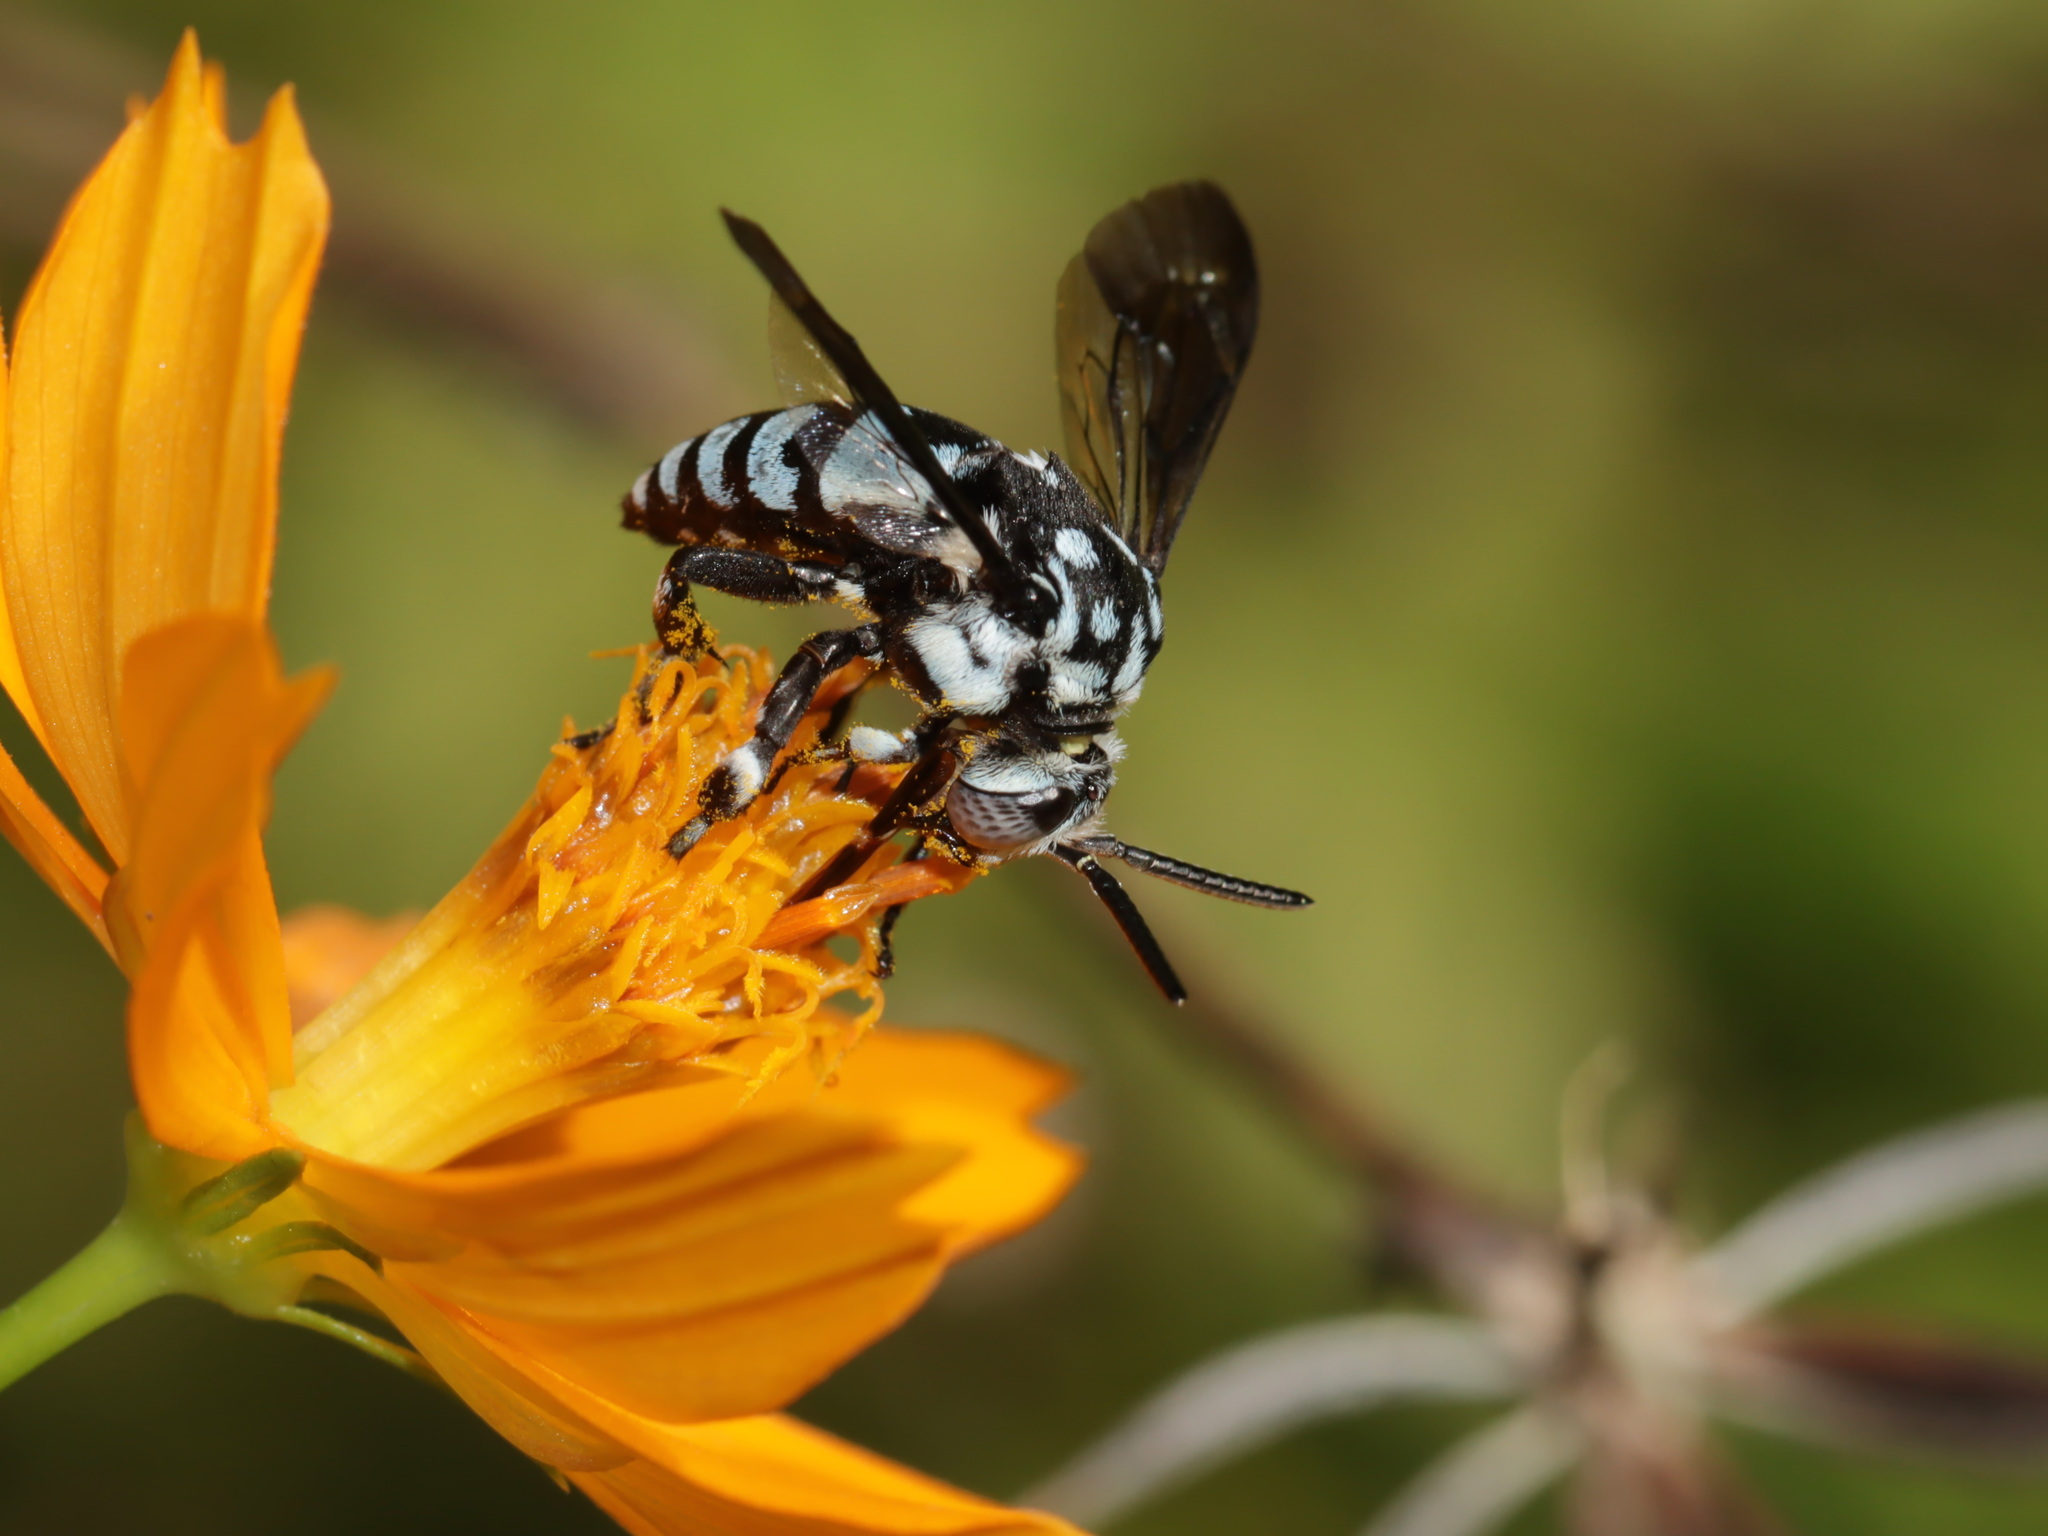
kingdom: Animalia
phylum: Arthropoda
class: Insecta
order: Hymenoptera
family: Apidae
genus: Thyreus
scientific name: Thyreus novaehollandiae
